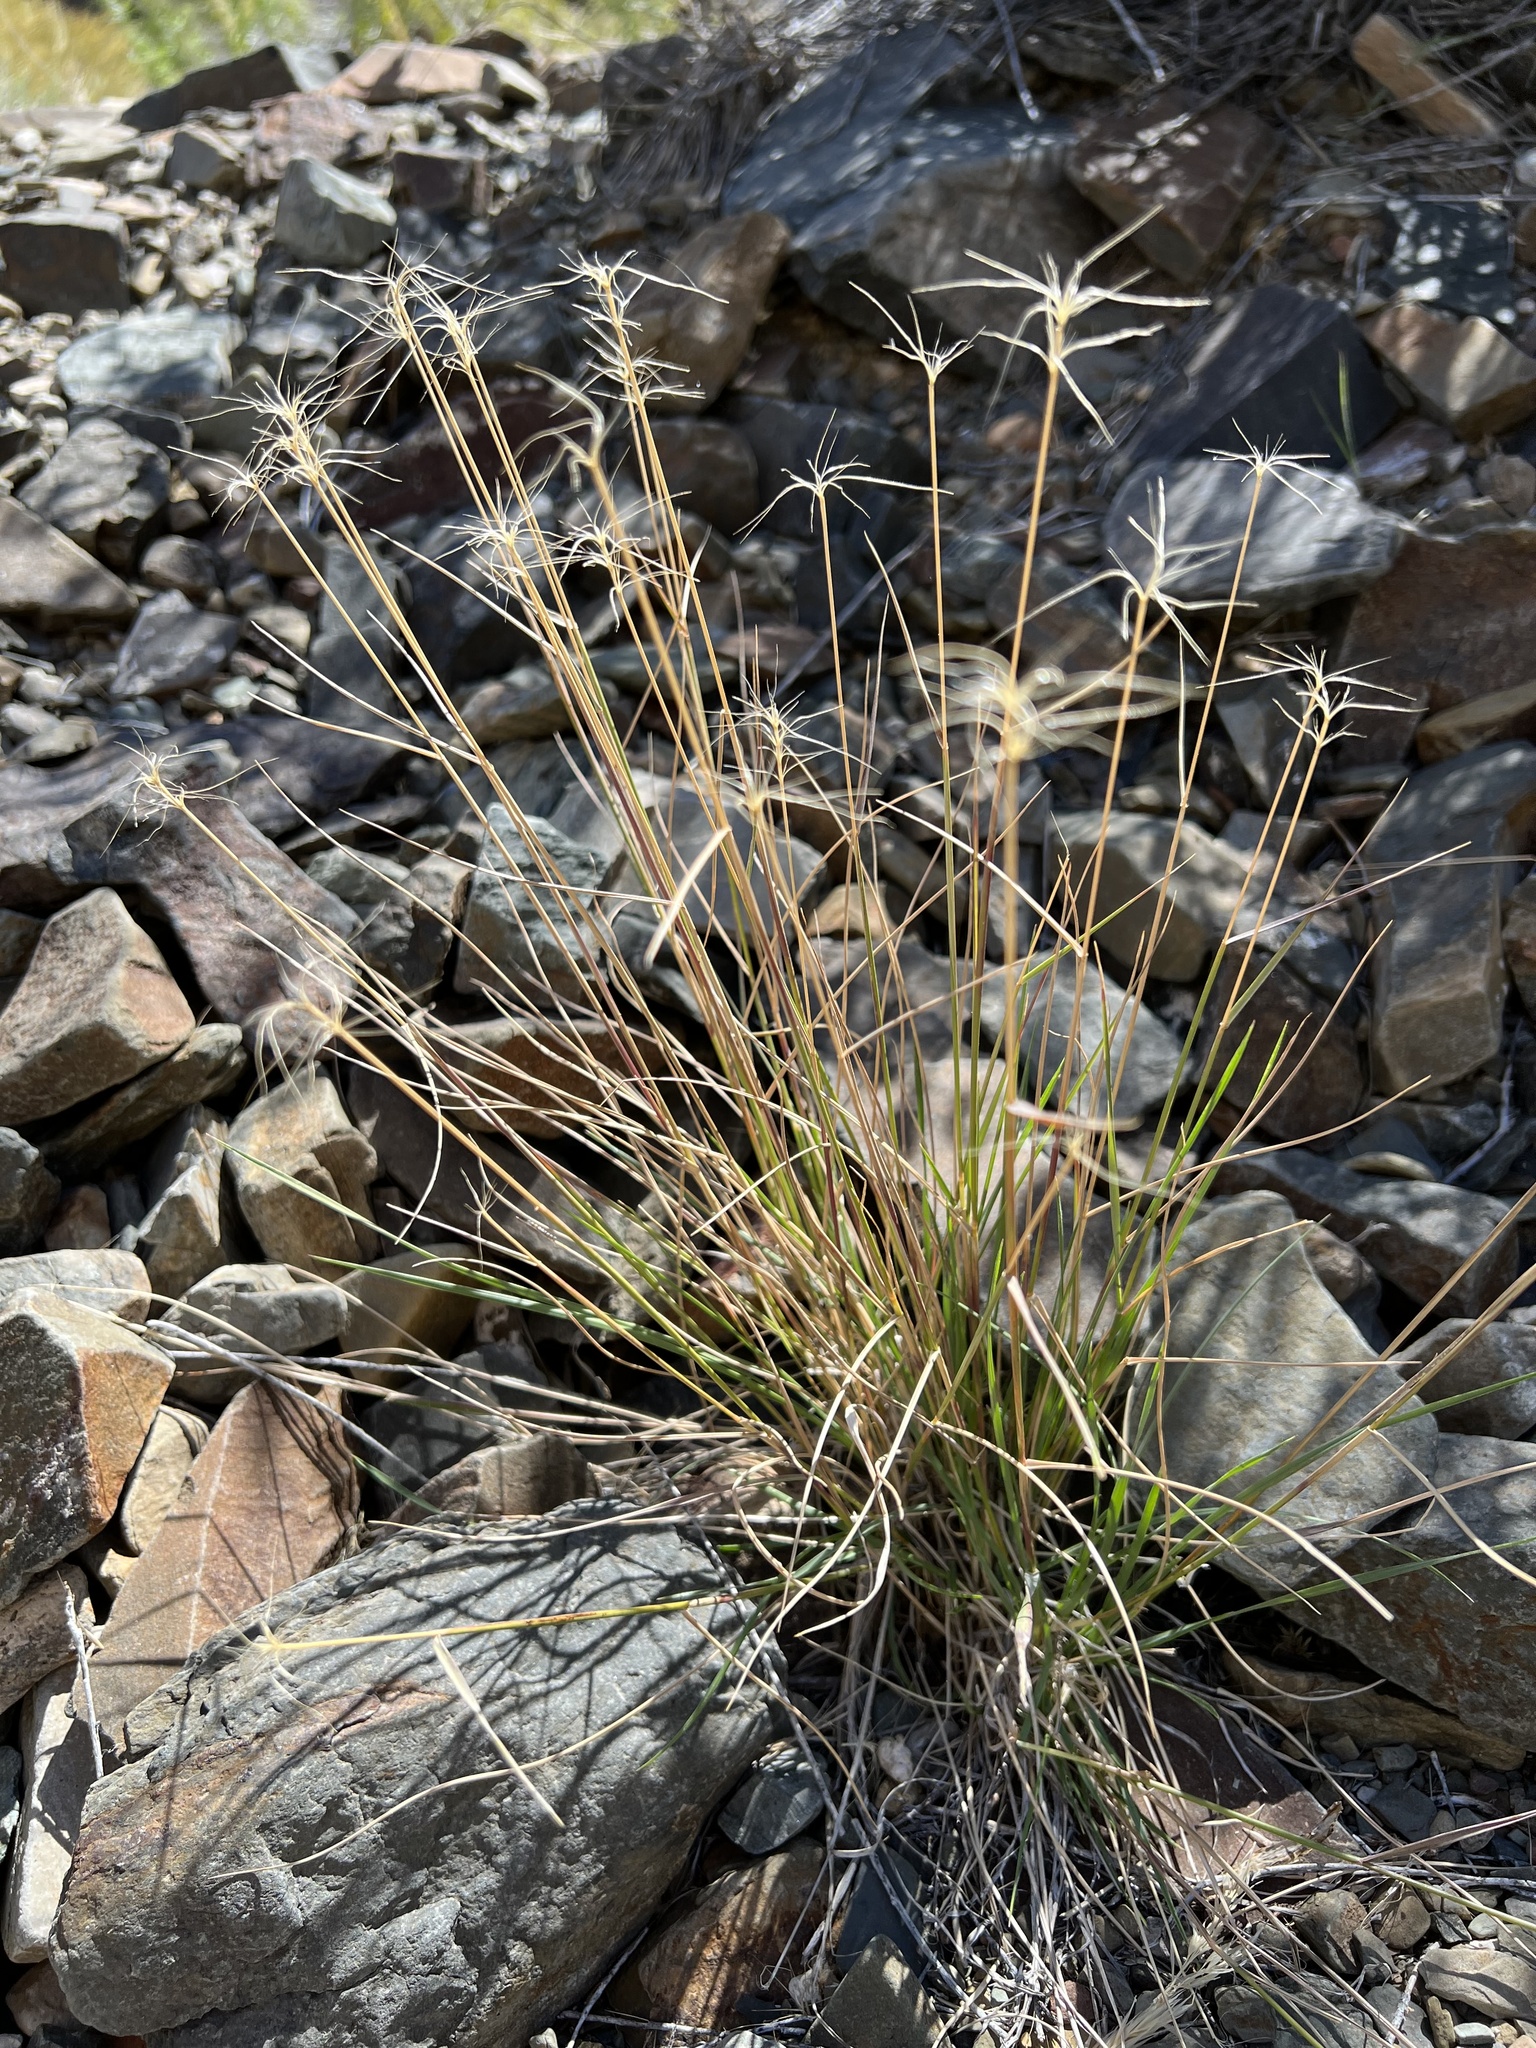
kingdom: Plantae
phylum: Tracheophyta
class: Liliopsida
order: Poales
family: Poaceae
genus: Elymus
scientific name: Elymus elymoides
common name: Bottlebrush squirreltail
